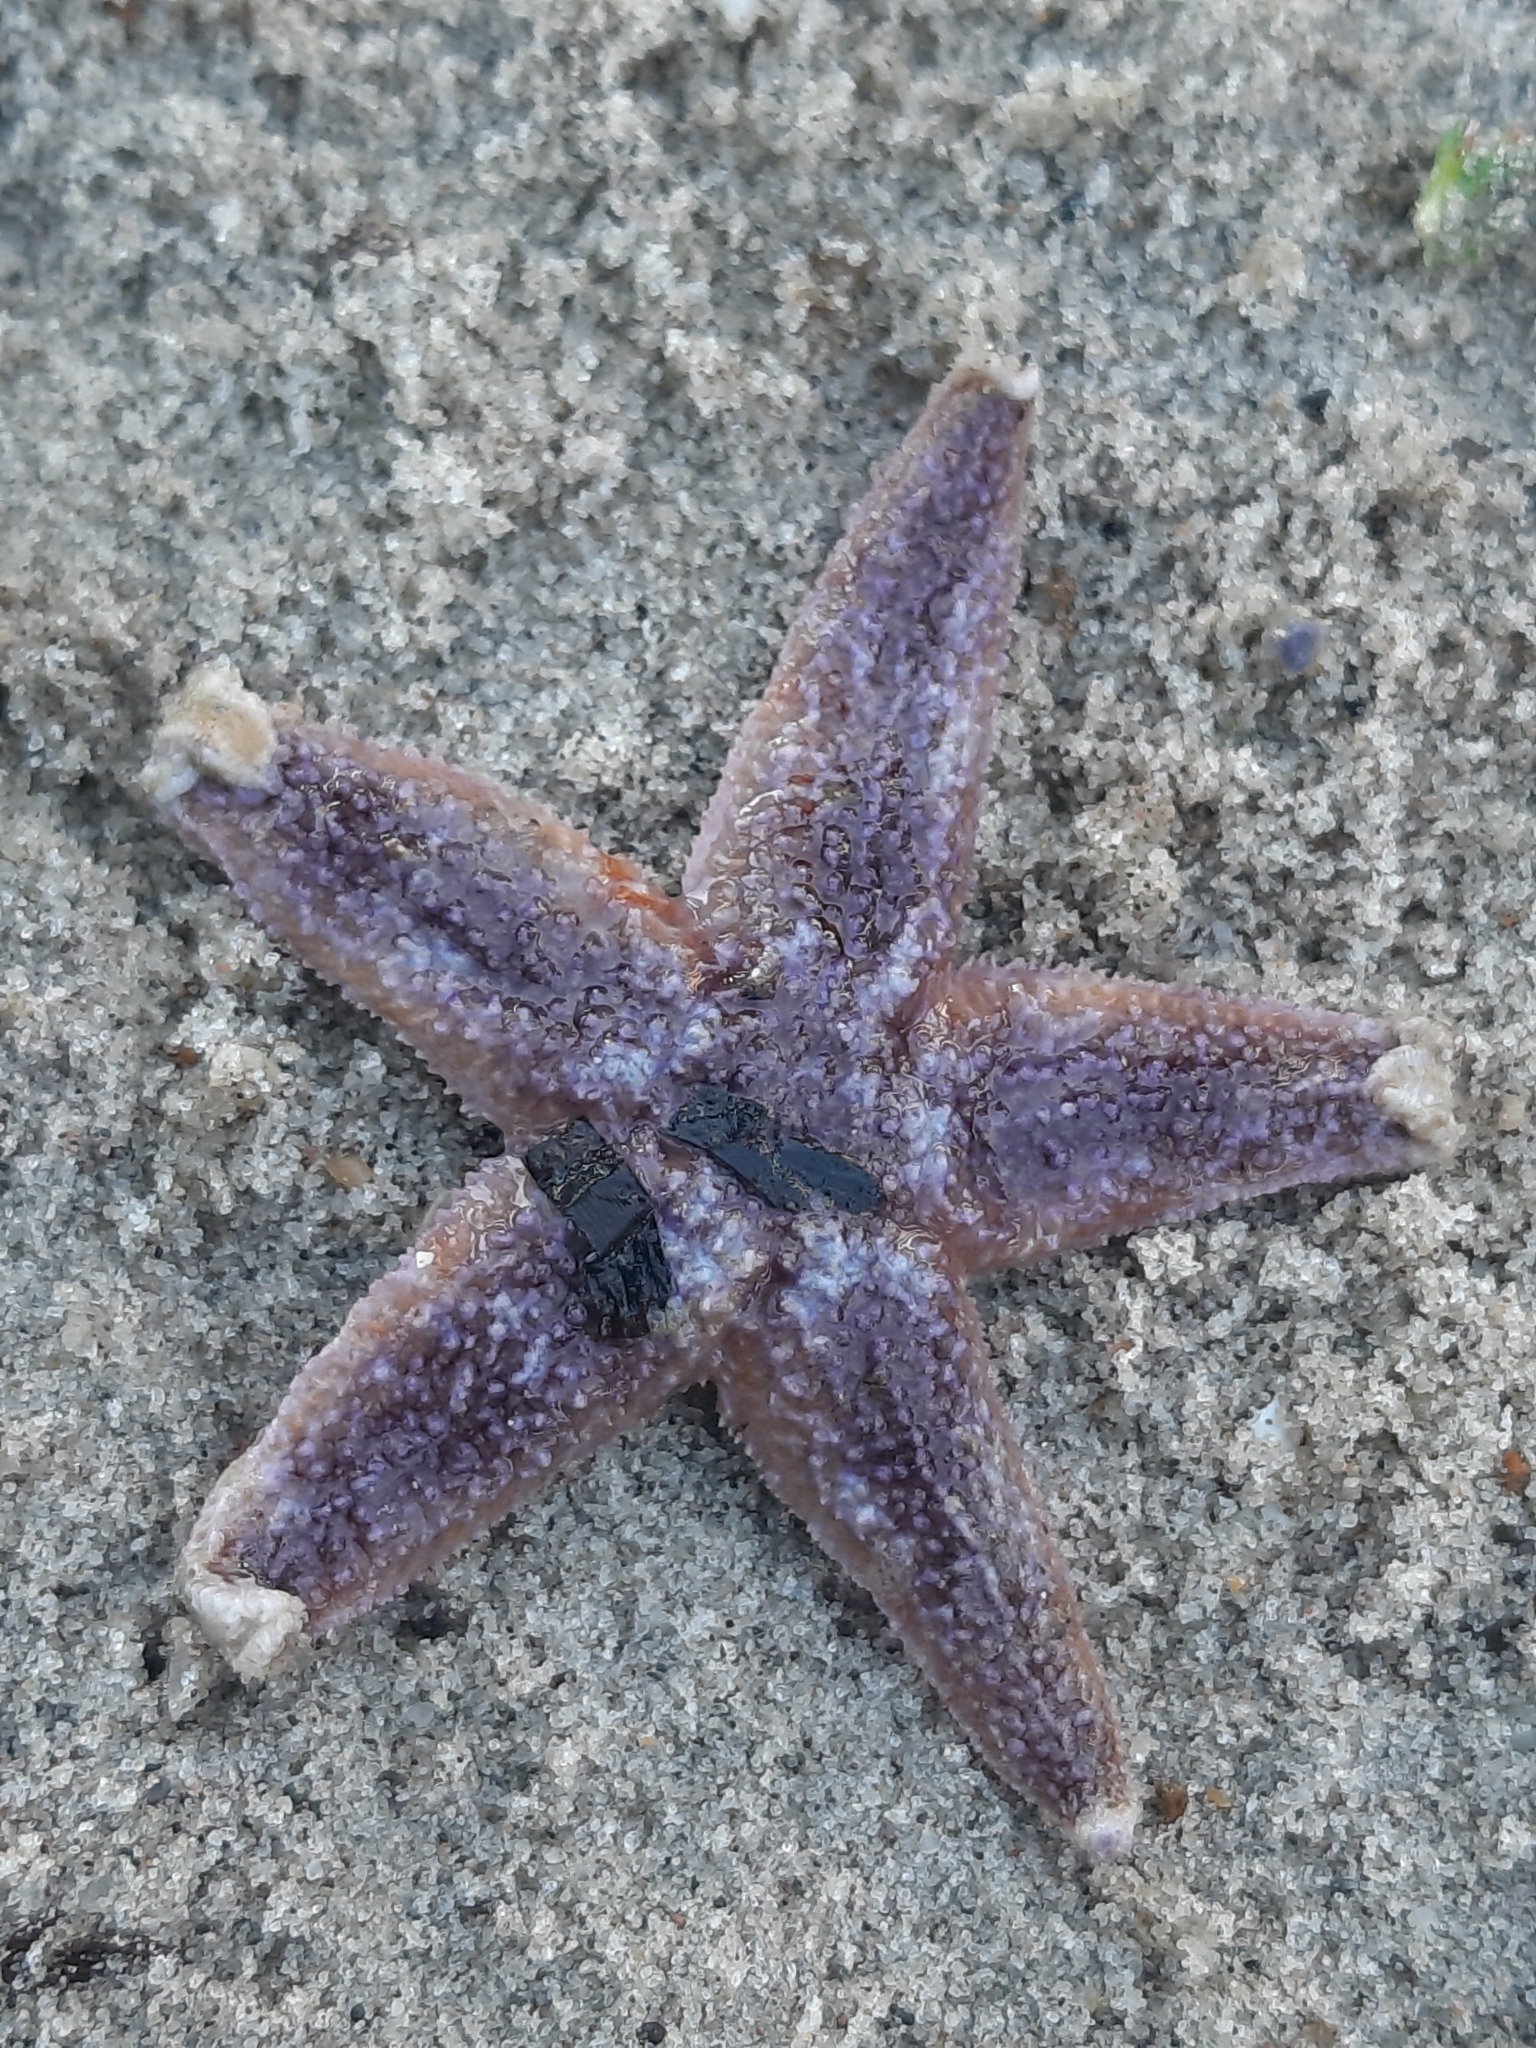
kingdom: Animalia
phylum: Echinodermata
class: Asteroidea
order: Forcipulatida
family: Asteriidae
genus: Asterias
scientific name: Asterias rubens
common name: Common starfish
